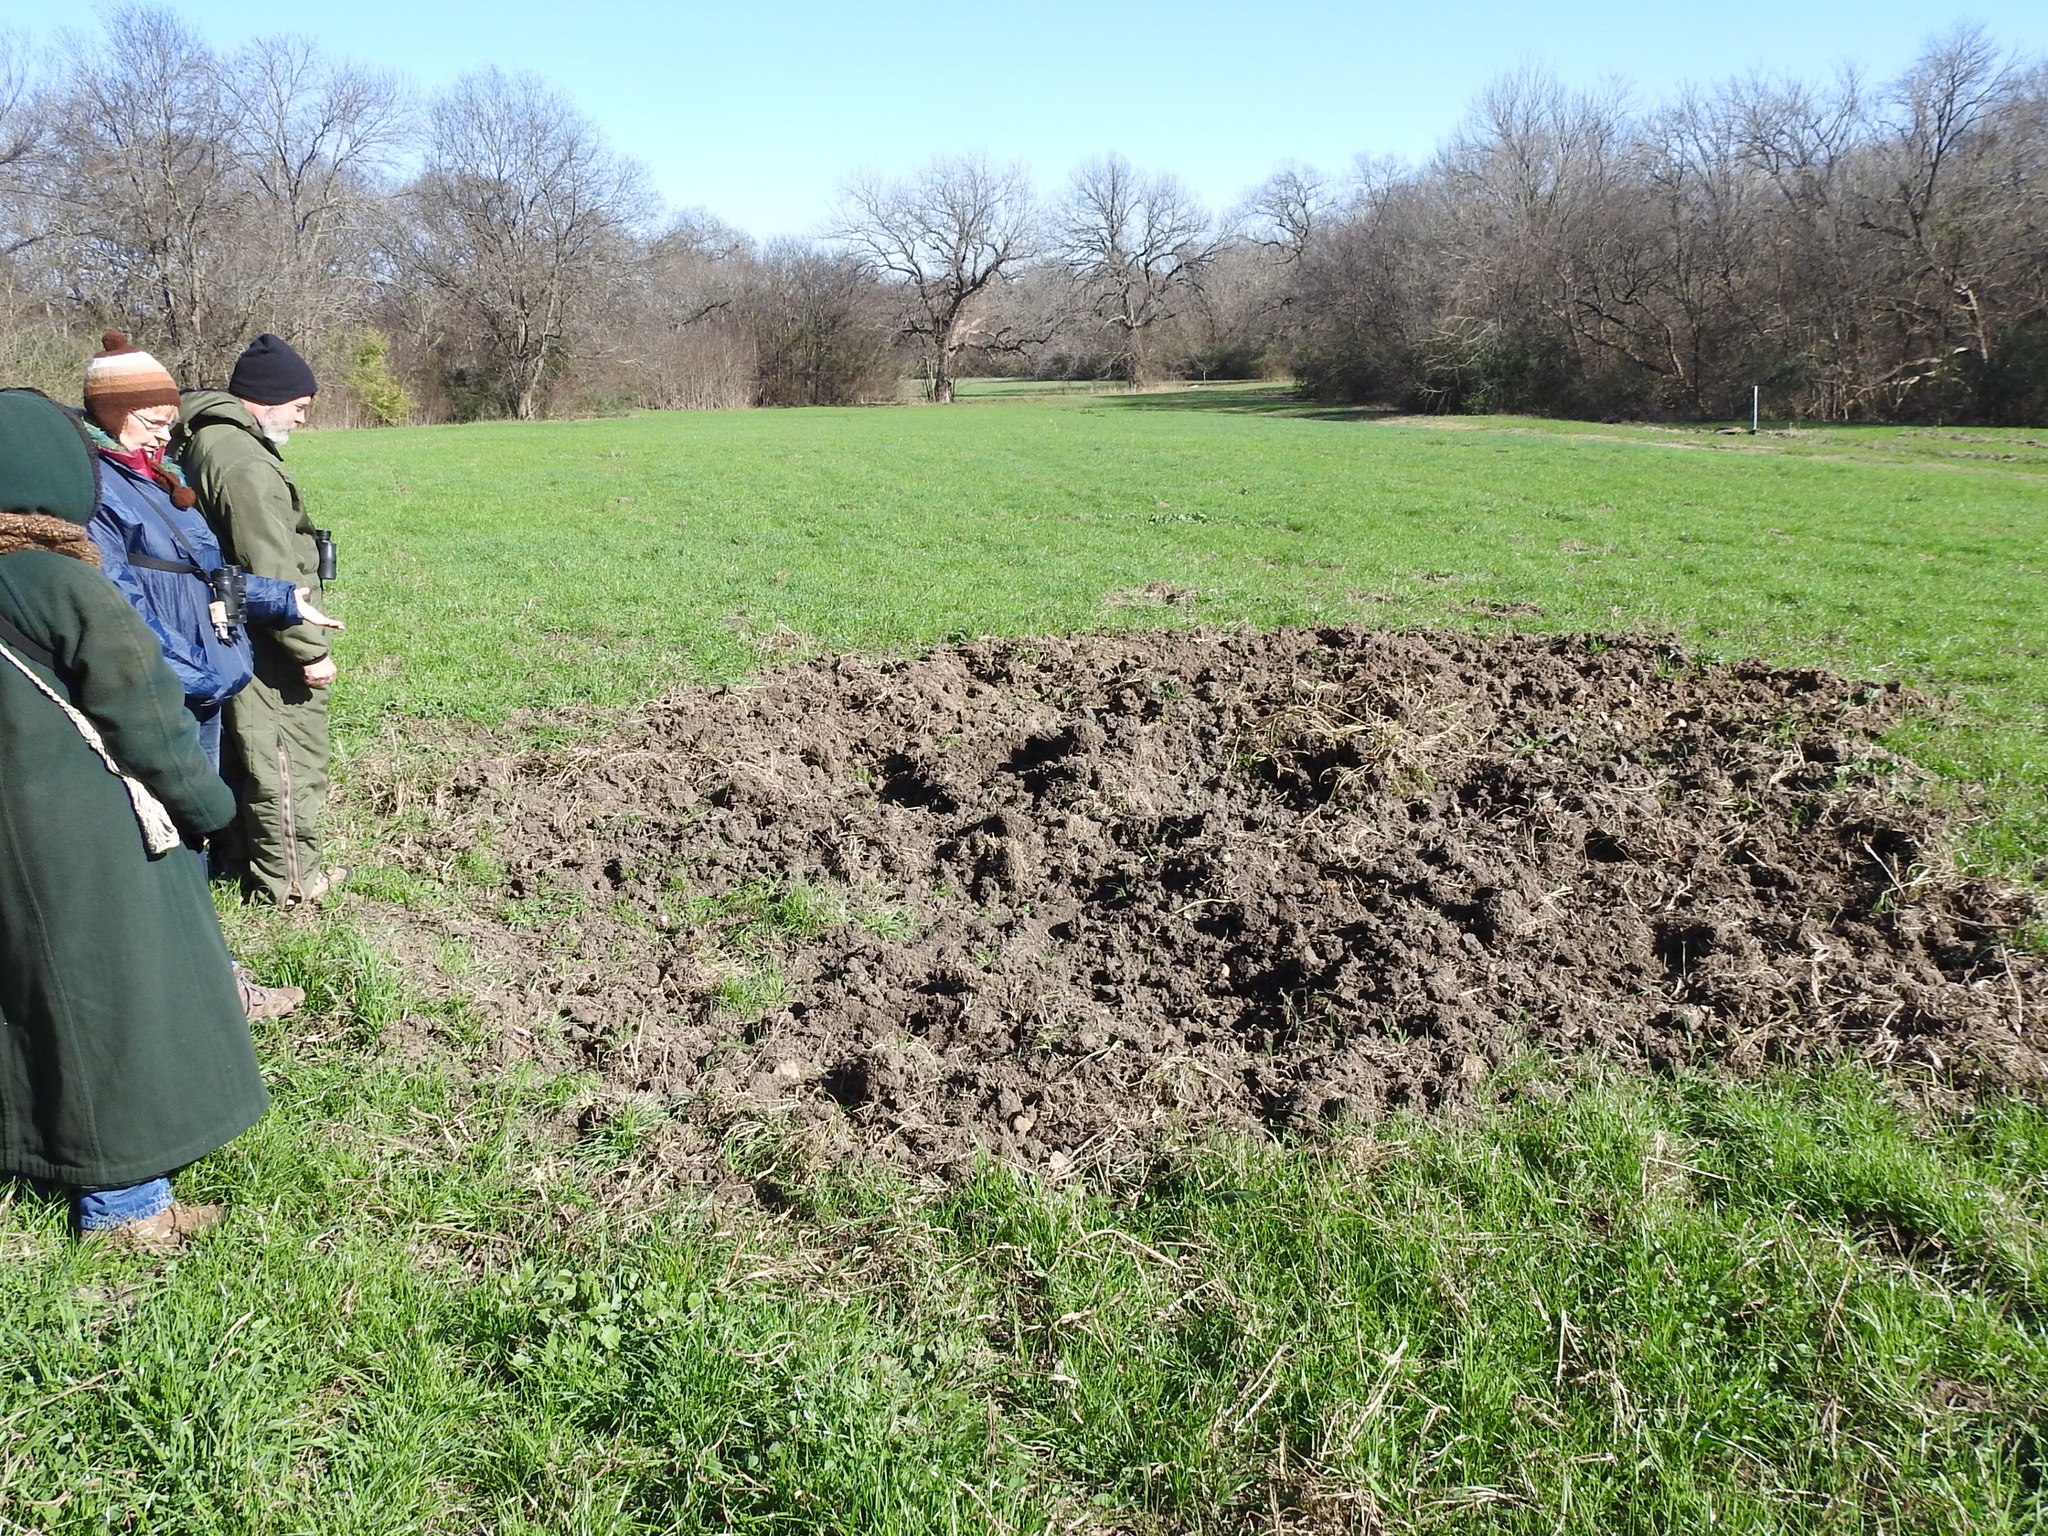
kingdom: Animalia
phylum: Chordata
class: Mammalia
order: Artiodactyla
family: Suidae
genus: Sus
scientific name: Sus scrofa
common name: Wild boar
